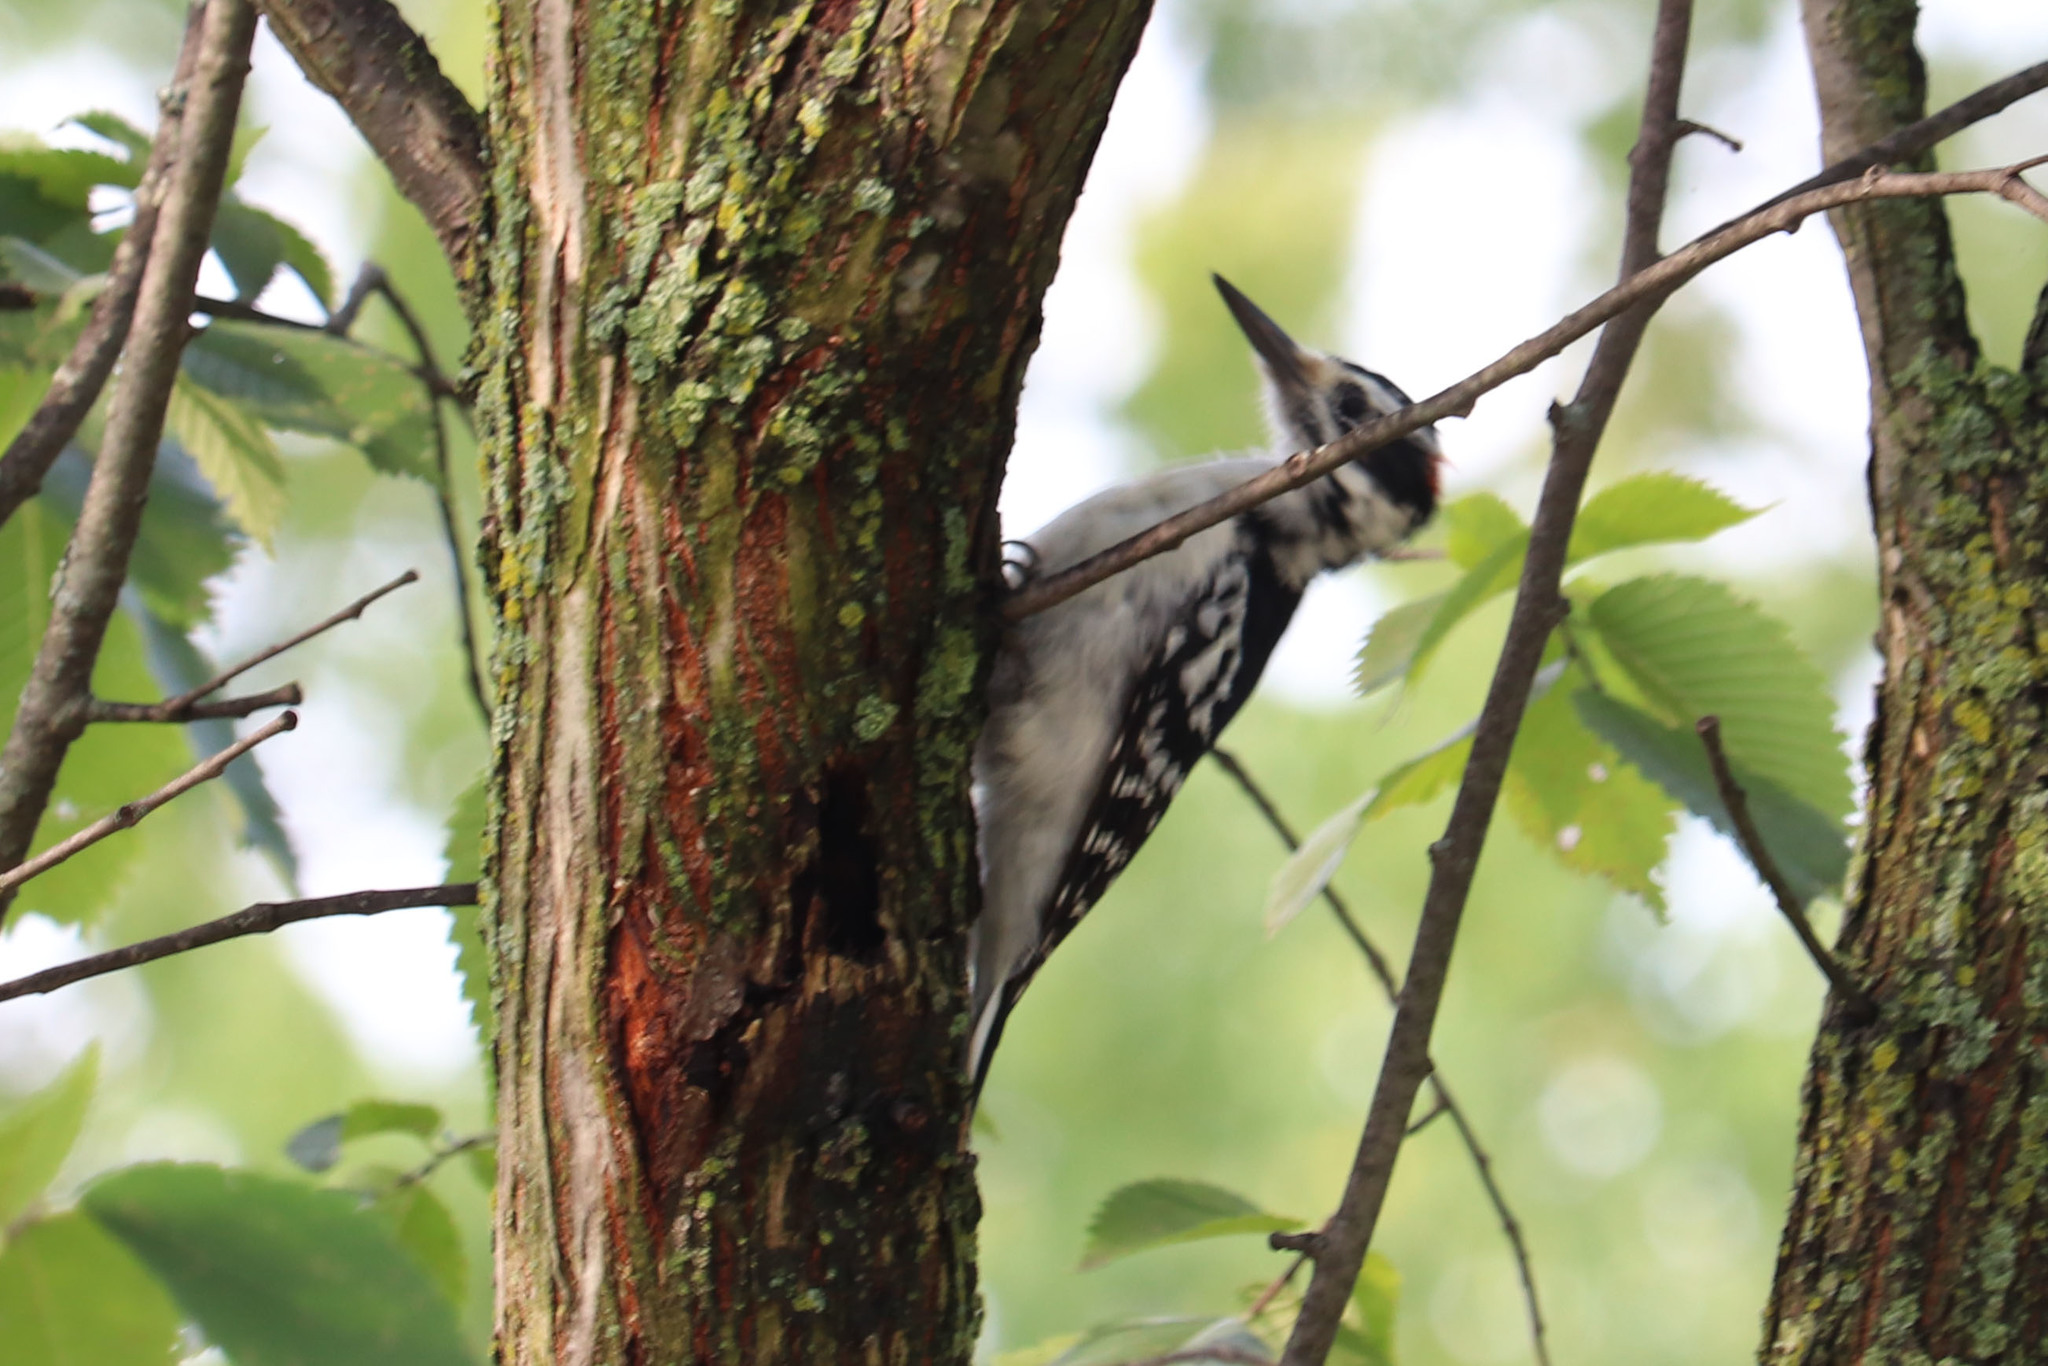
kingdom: Animalia
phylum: Chordata
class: Aves
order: Piciformes
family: Picidae
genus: Leuconotopicus
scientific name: Leuconotopicus villosus
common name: Hairy woodpecker
